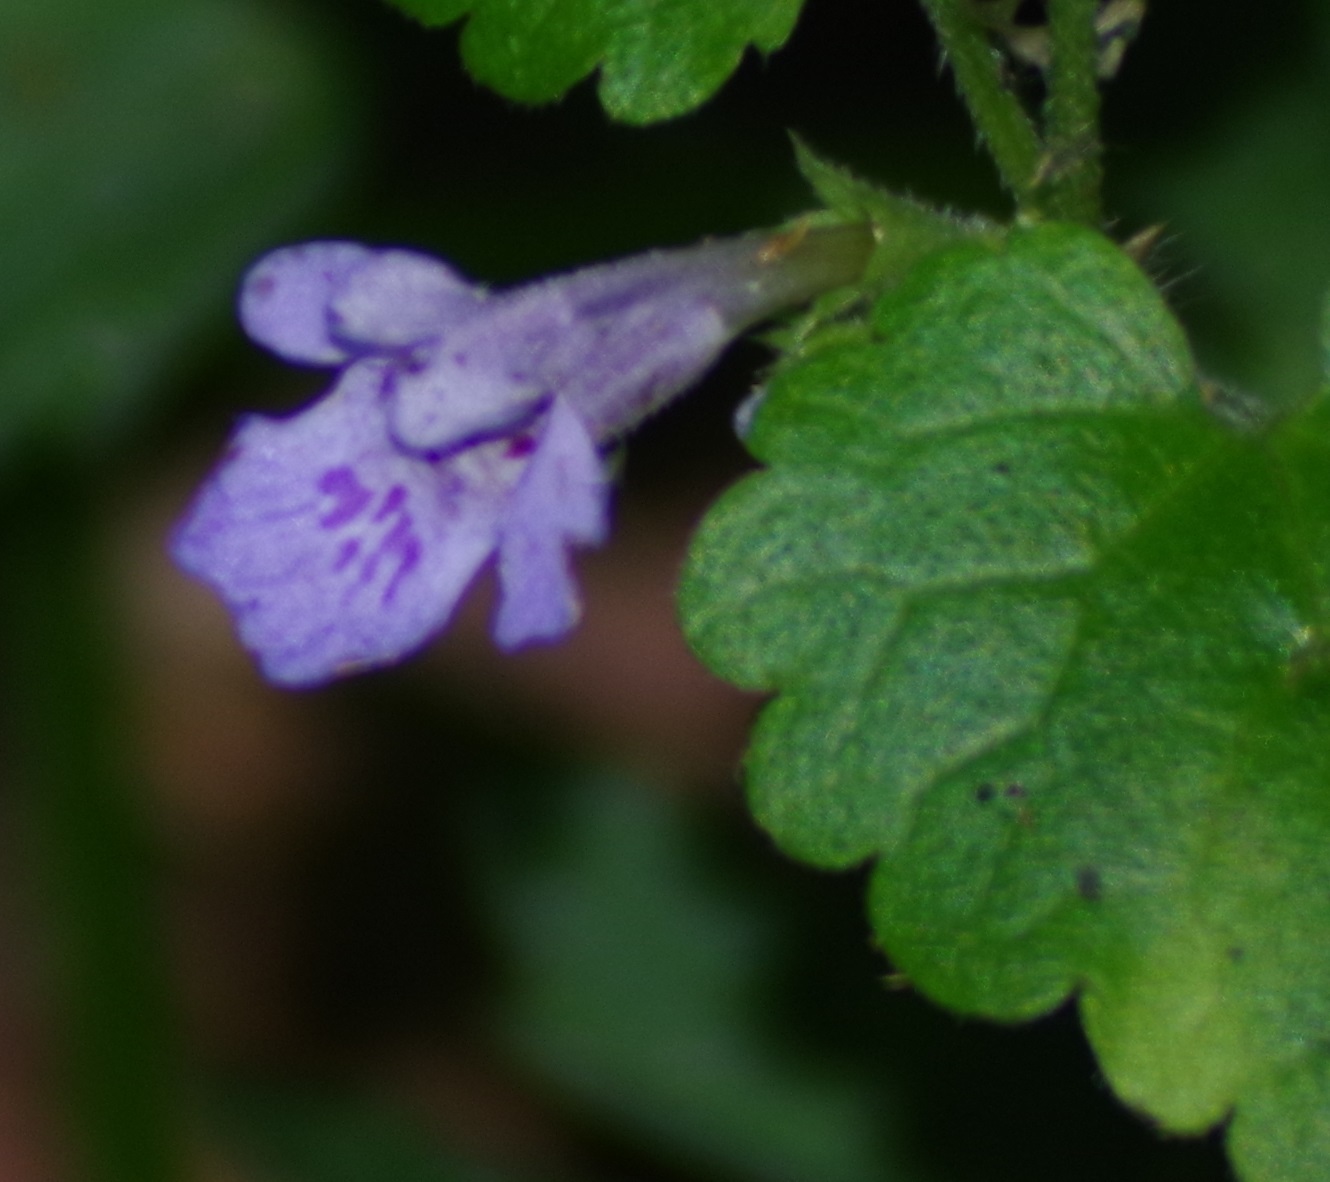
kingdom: Plantae
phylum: Tracheophyta
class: Magnoliopsida
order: Lamiales
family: Lamiaceae
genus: Glechoma
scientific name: Glechoma hederacea
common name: Ground ivy
